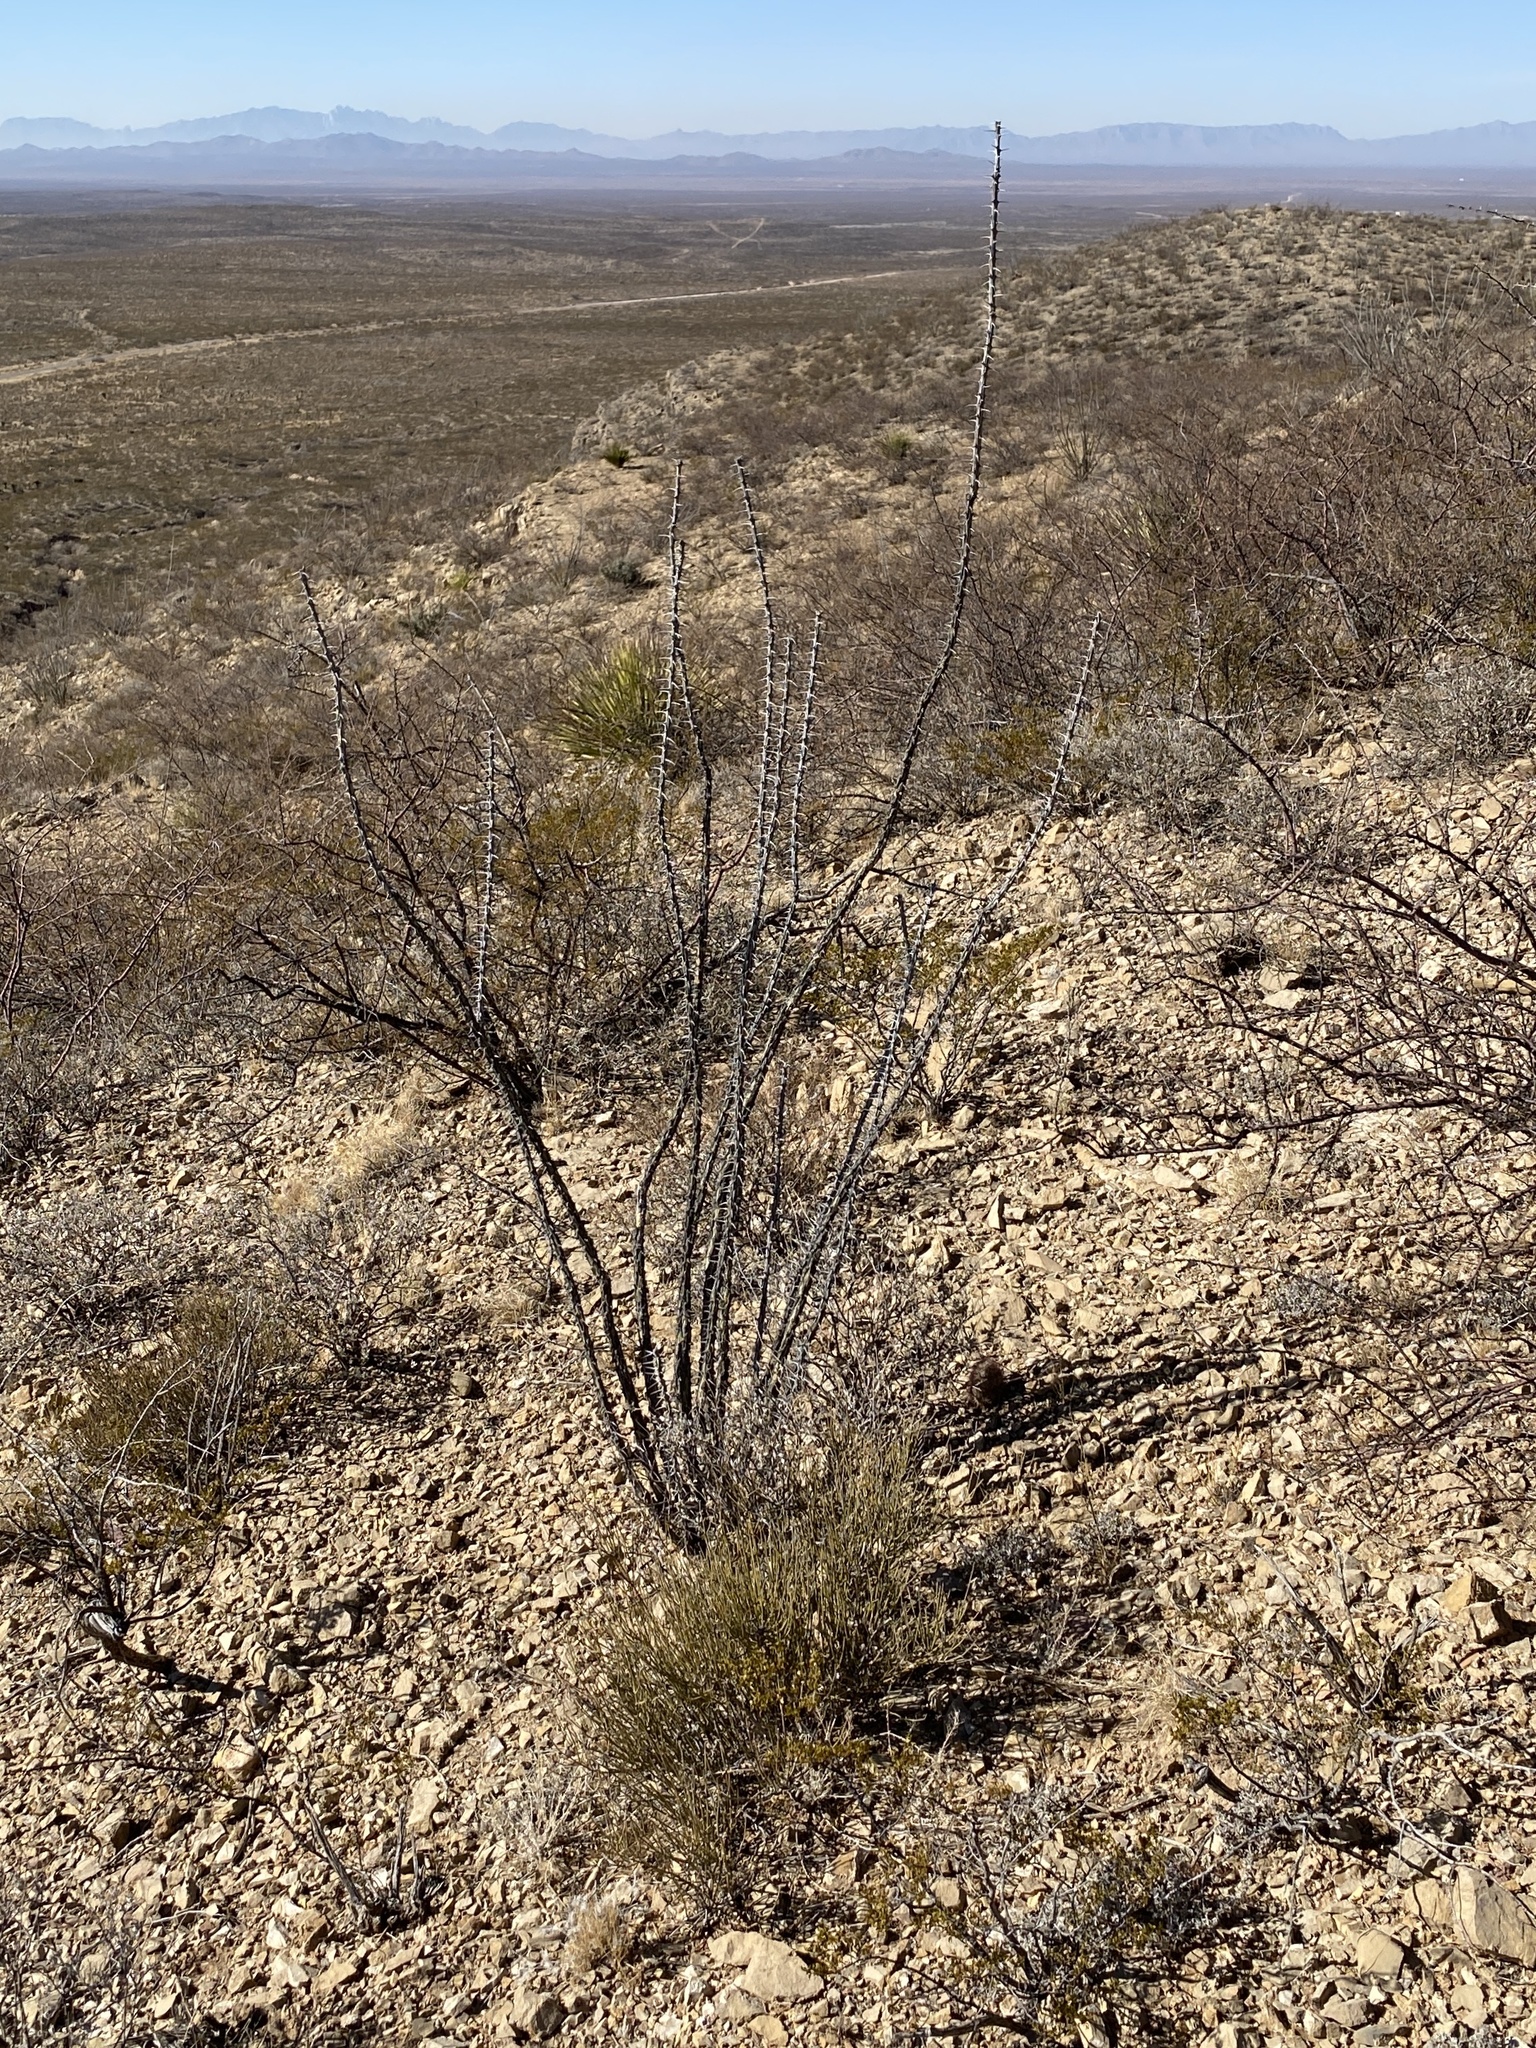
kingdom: Plantae
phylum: Tracheophyta
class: Magnoliopsida
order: Ericales
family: Fouquieriaceae
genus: Fouquieria
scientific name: Fouquieria splendens
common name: Vine-cactus
